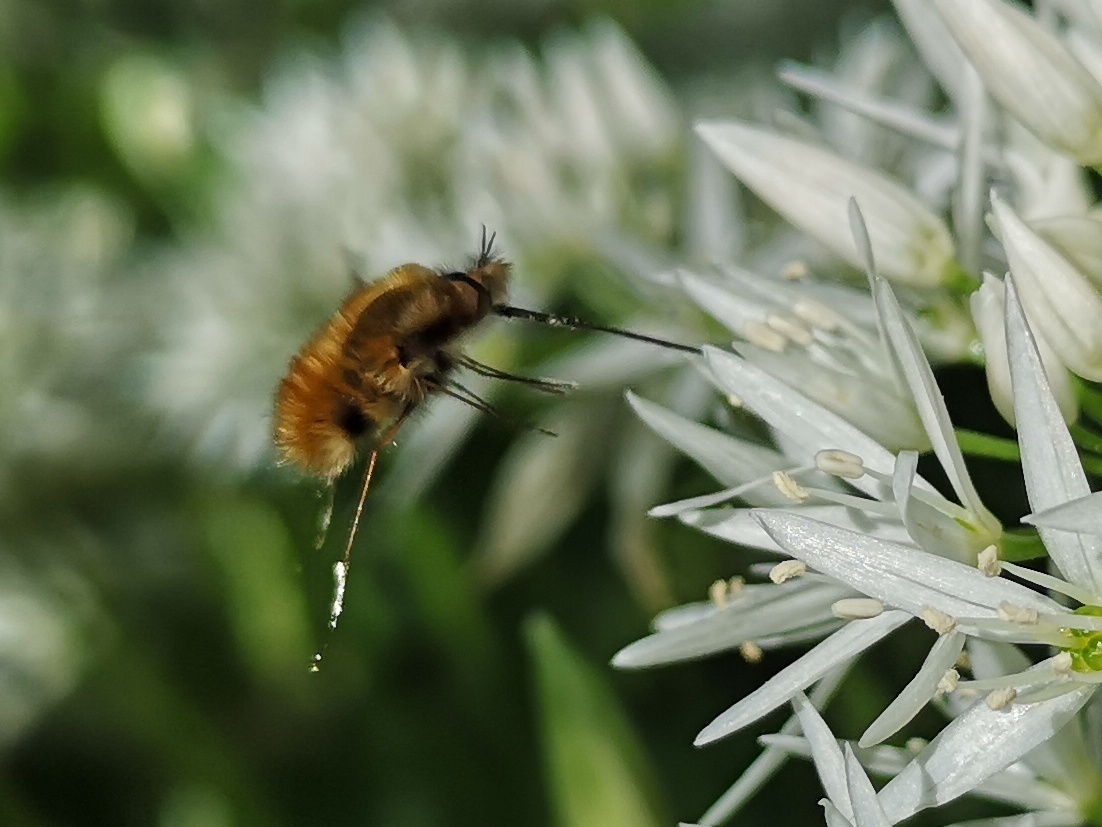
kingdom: Animalia
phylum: Arthropoda
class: Insecta
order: Diptera
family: Bombyliidae
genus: Bombylius
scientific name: Bombylius major
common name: Bee fly
